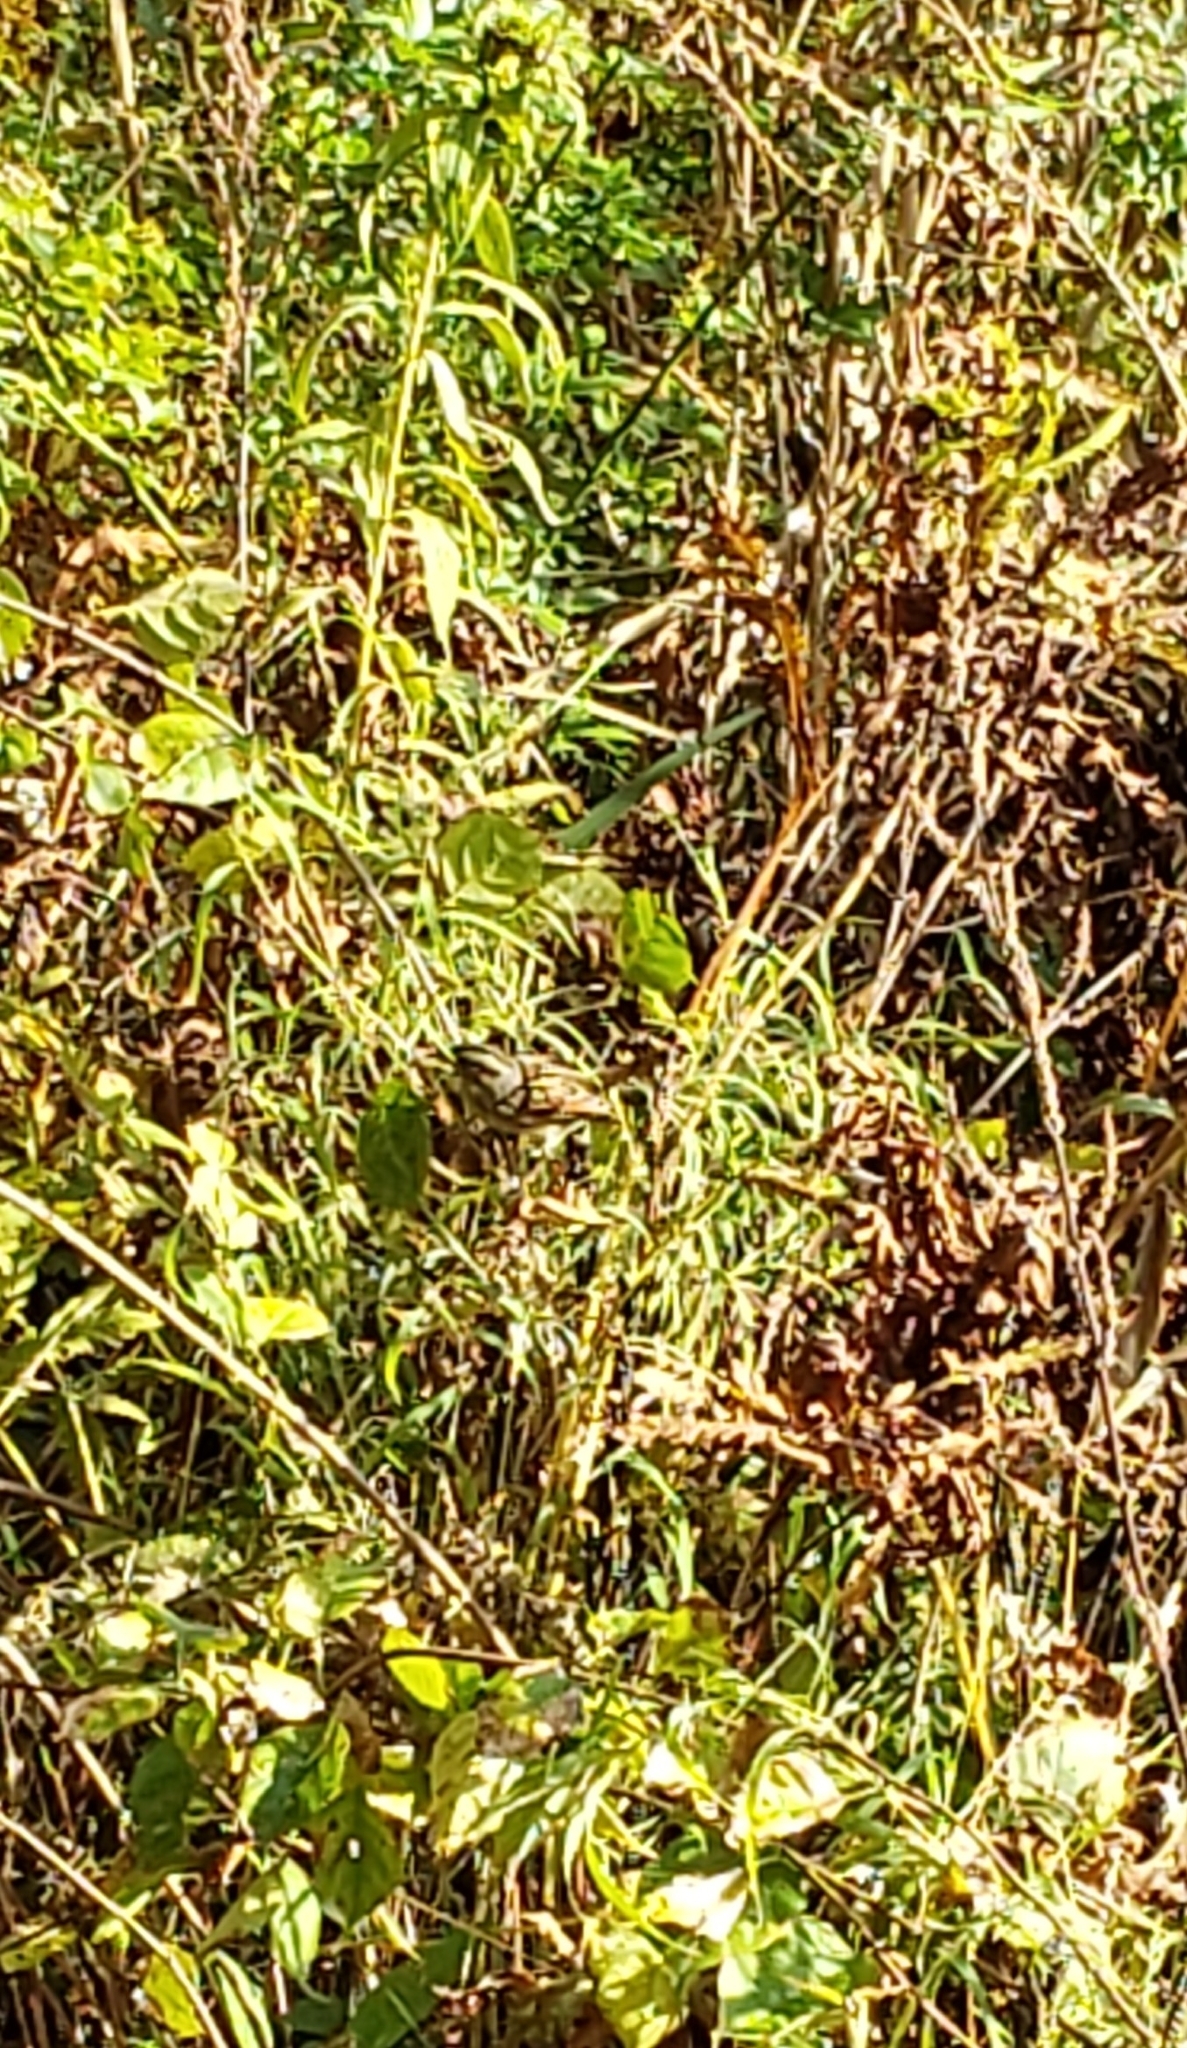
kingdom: Animalia
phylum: Chordata
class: Aves
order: Passeriformes
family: Passerellidae
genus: Melospiza
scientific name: Melospiza melodia
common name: Song sparrow
